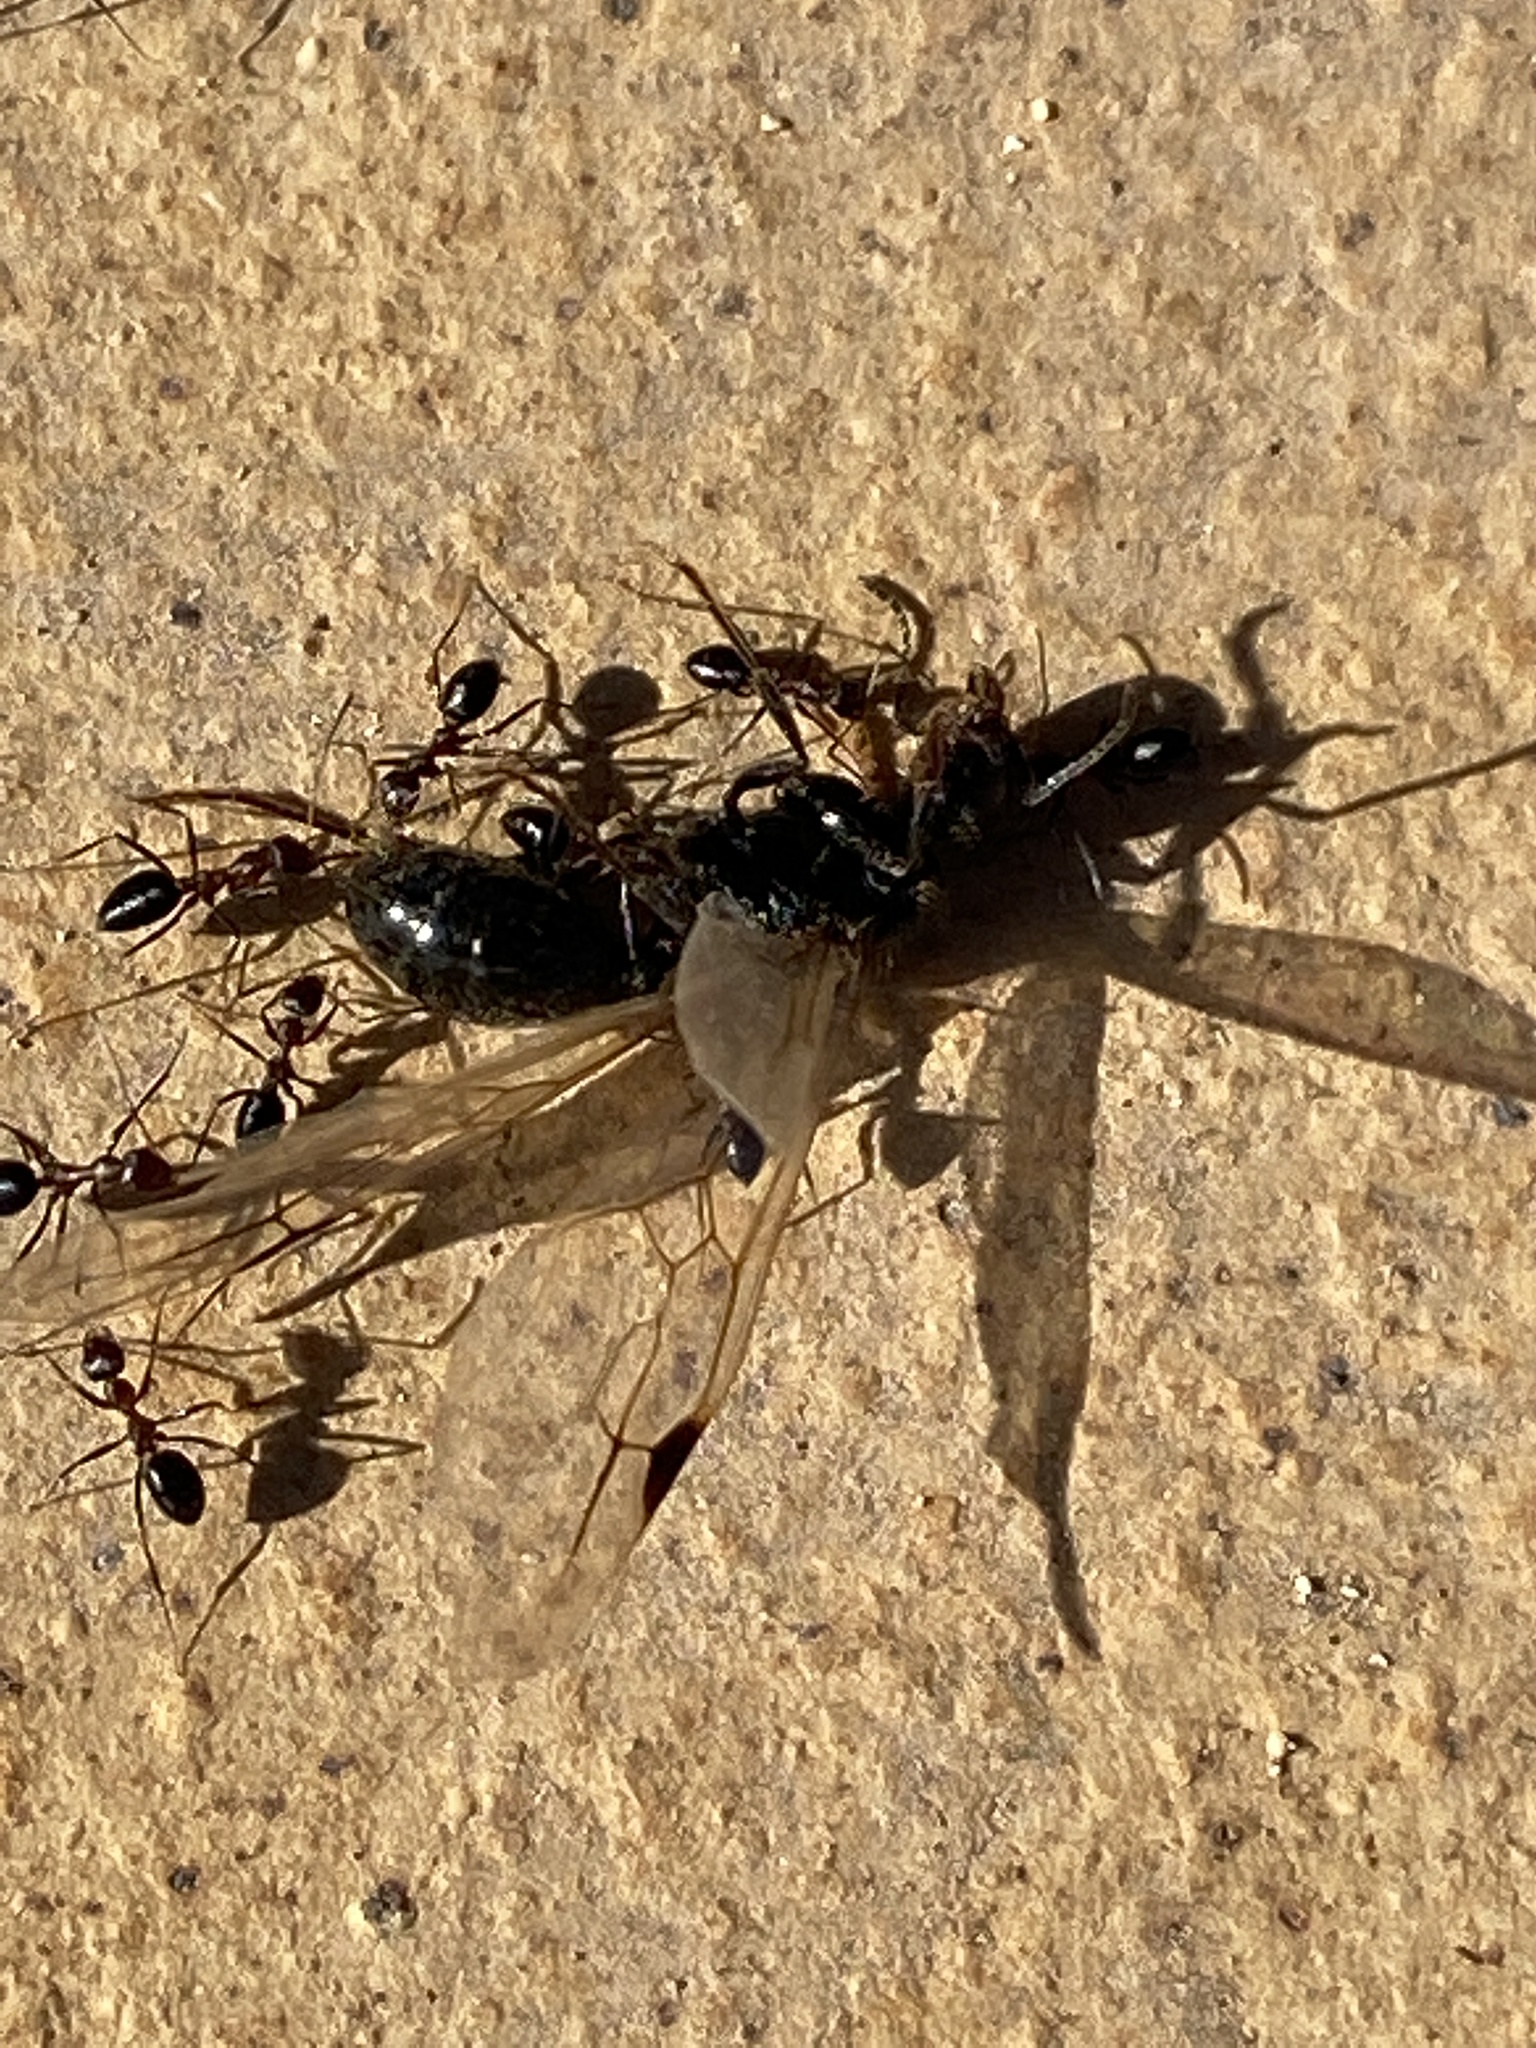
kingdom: Animalia
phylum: Arthropoda
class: Insecta
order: Hymenoptera
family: Formicidae
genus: Lepisiota
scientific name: Lepisiota frauenfeldi
